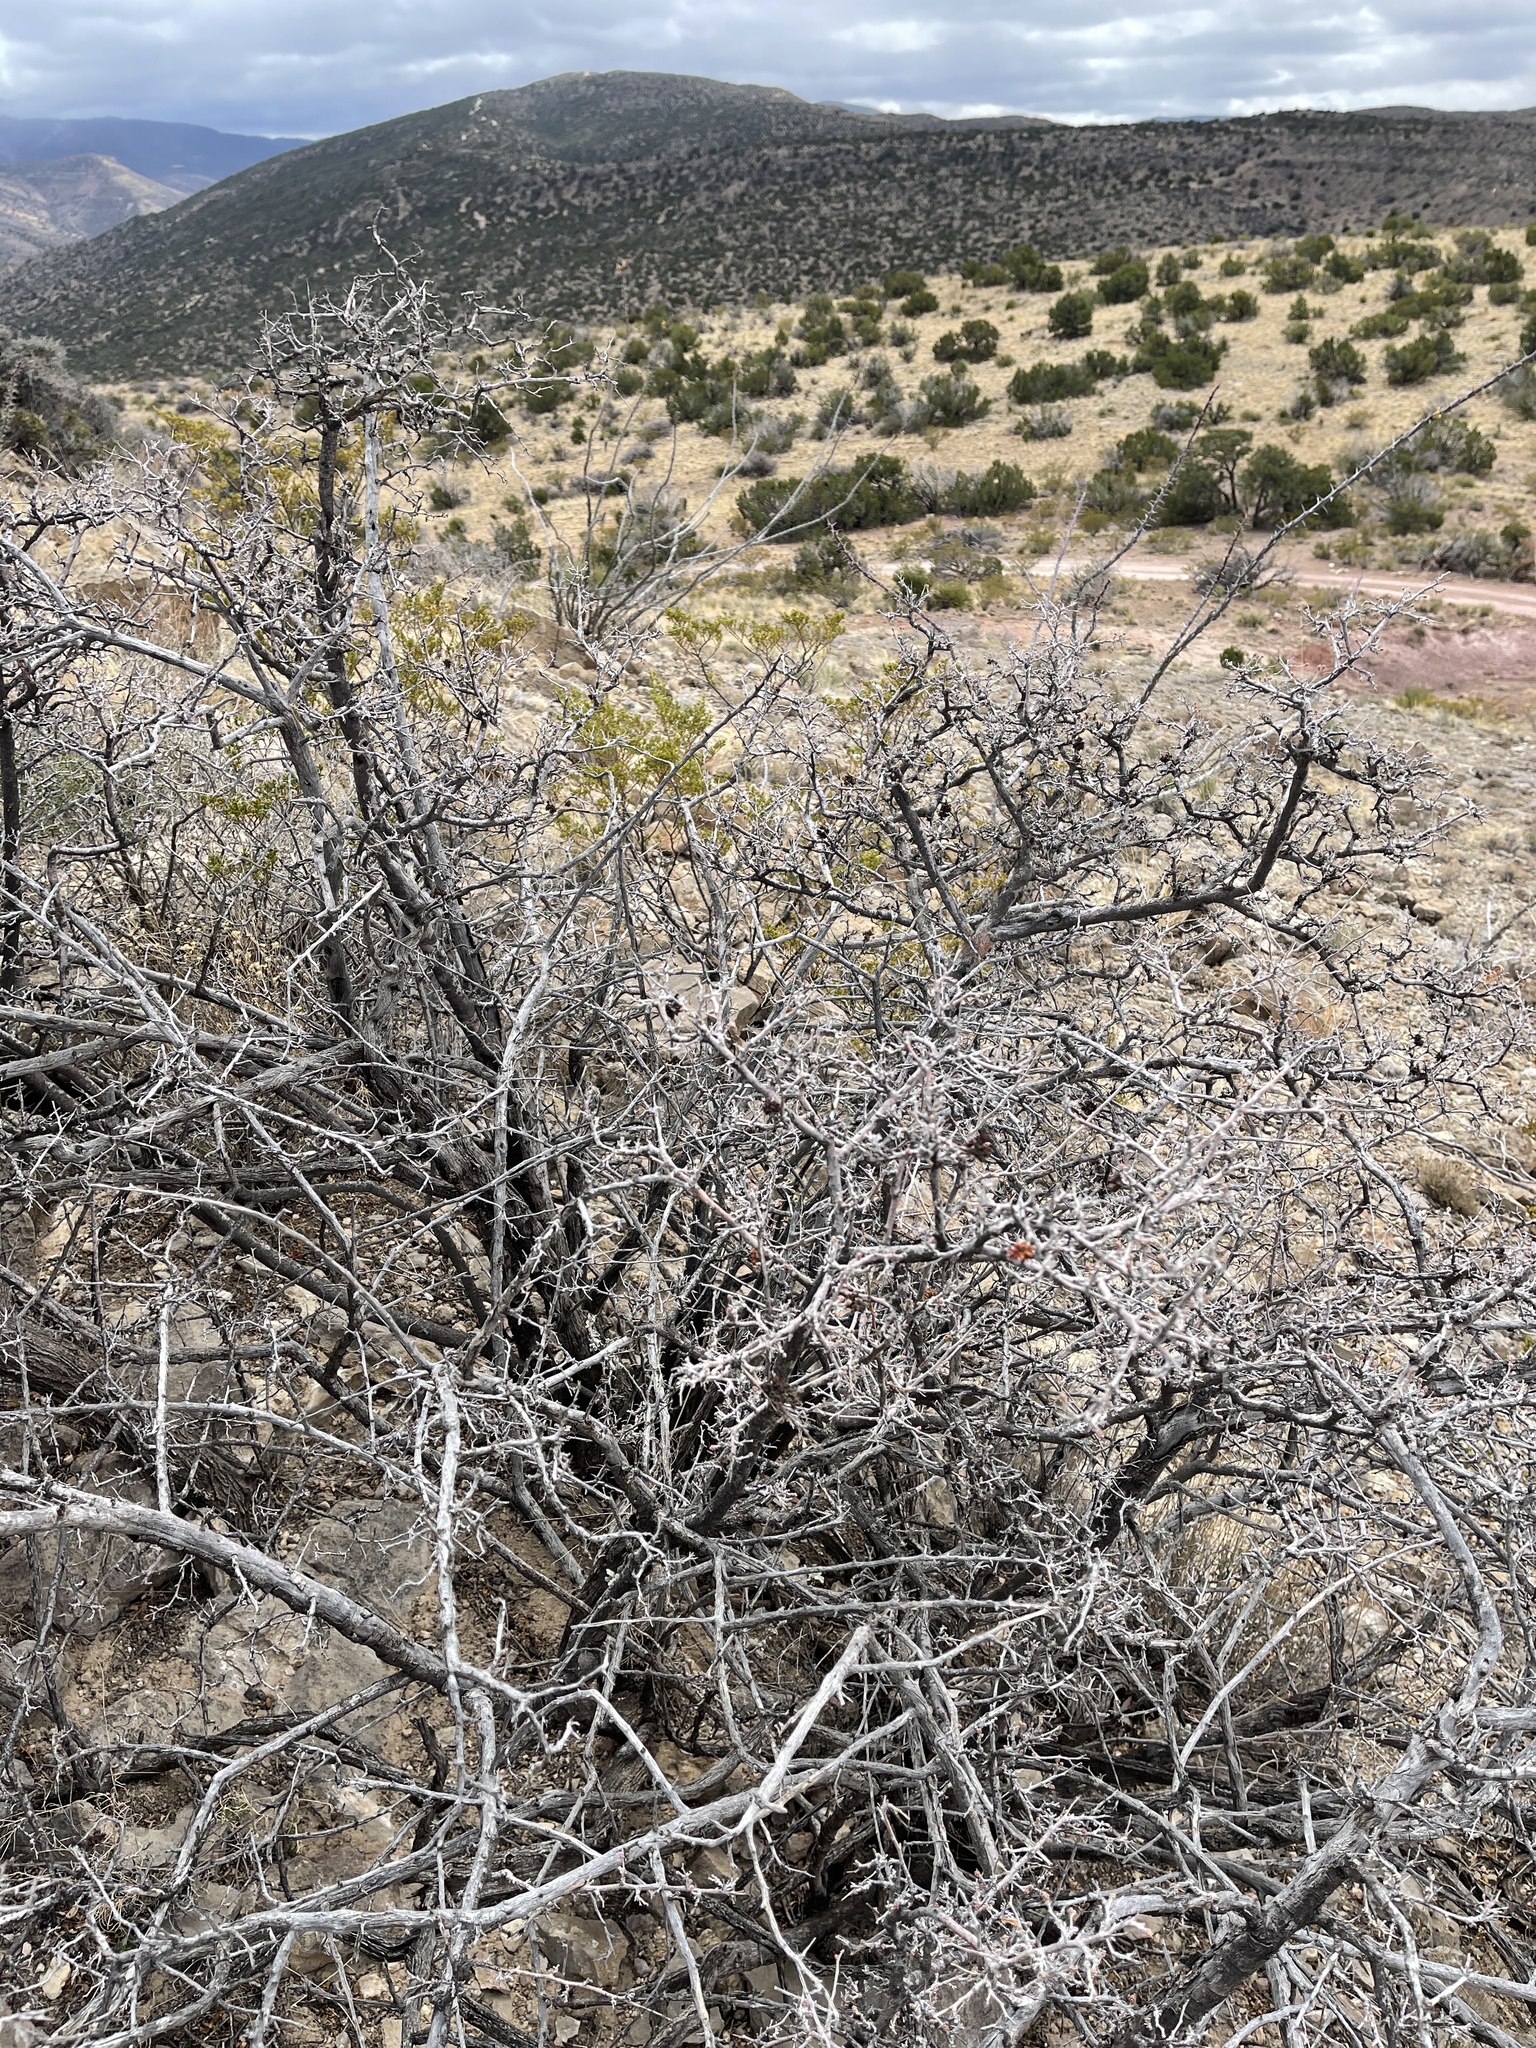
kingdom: Plantae
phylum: Tracheophyta
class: Magnoliopsida
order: Sapindales
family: Anacardiaceae
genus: Rhus
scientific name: Rhus microphylla
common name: Desert sumac
